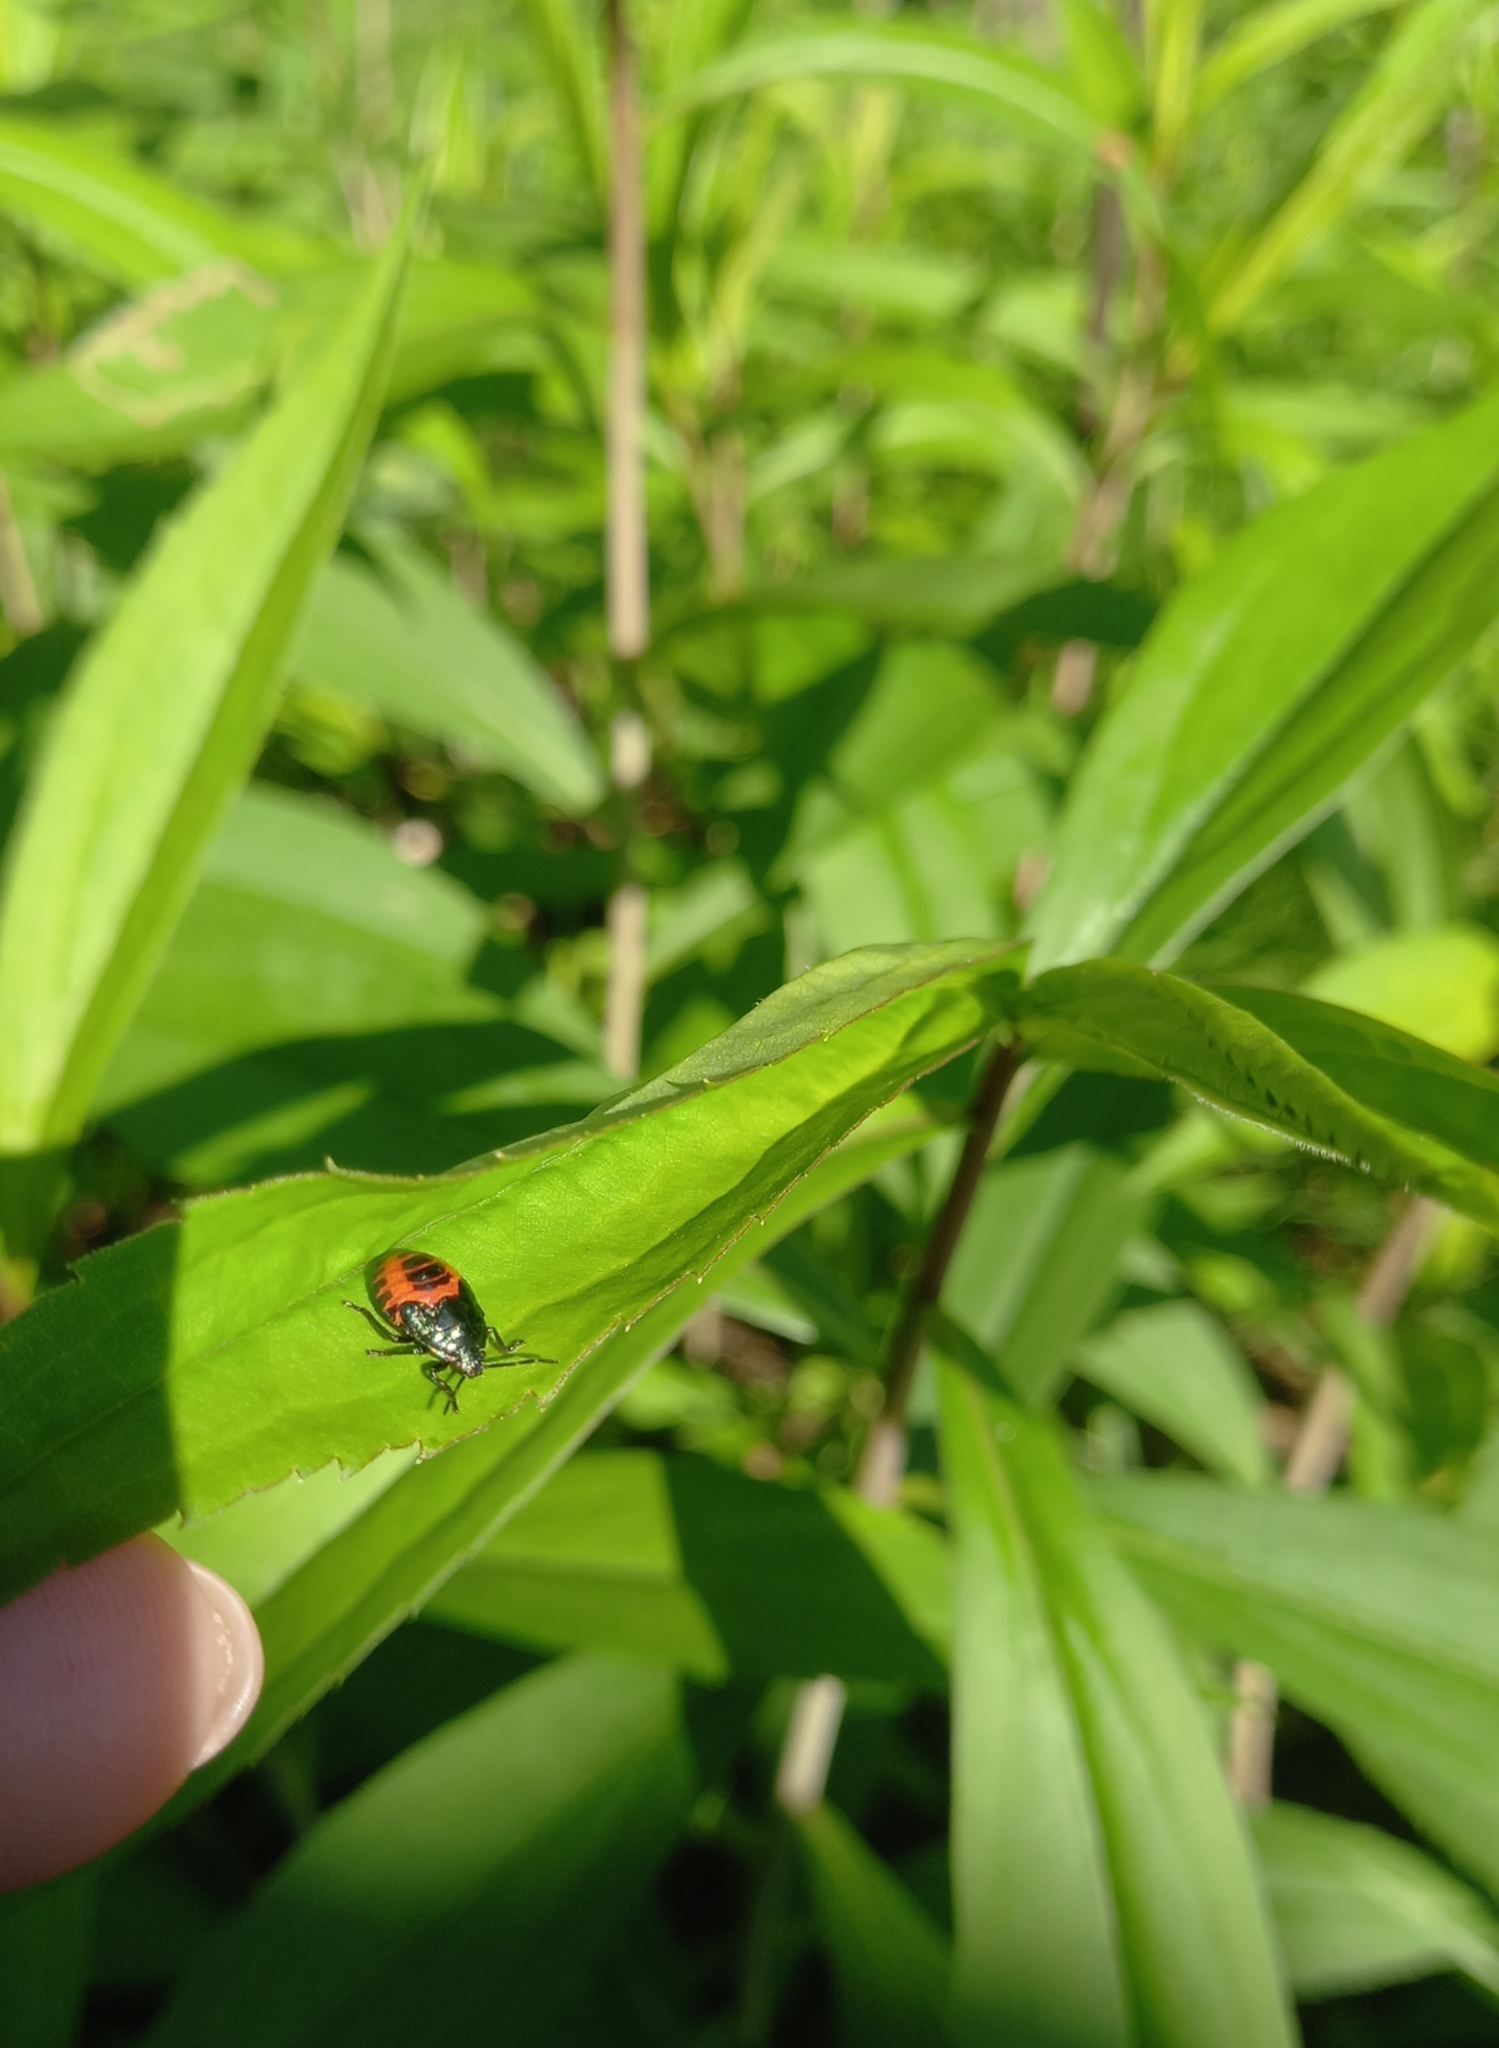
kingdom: Animalia
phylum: Arthropoda
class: Insecta
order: Hemiptera
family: Pentatomidae
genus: Zicrona
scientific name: Zicrona caerulea
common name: Blue shieldbug
